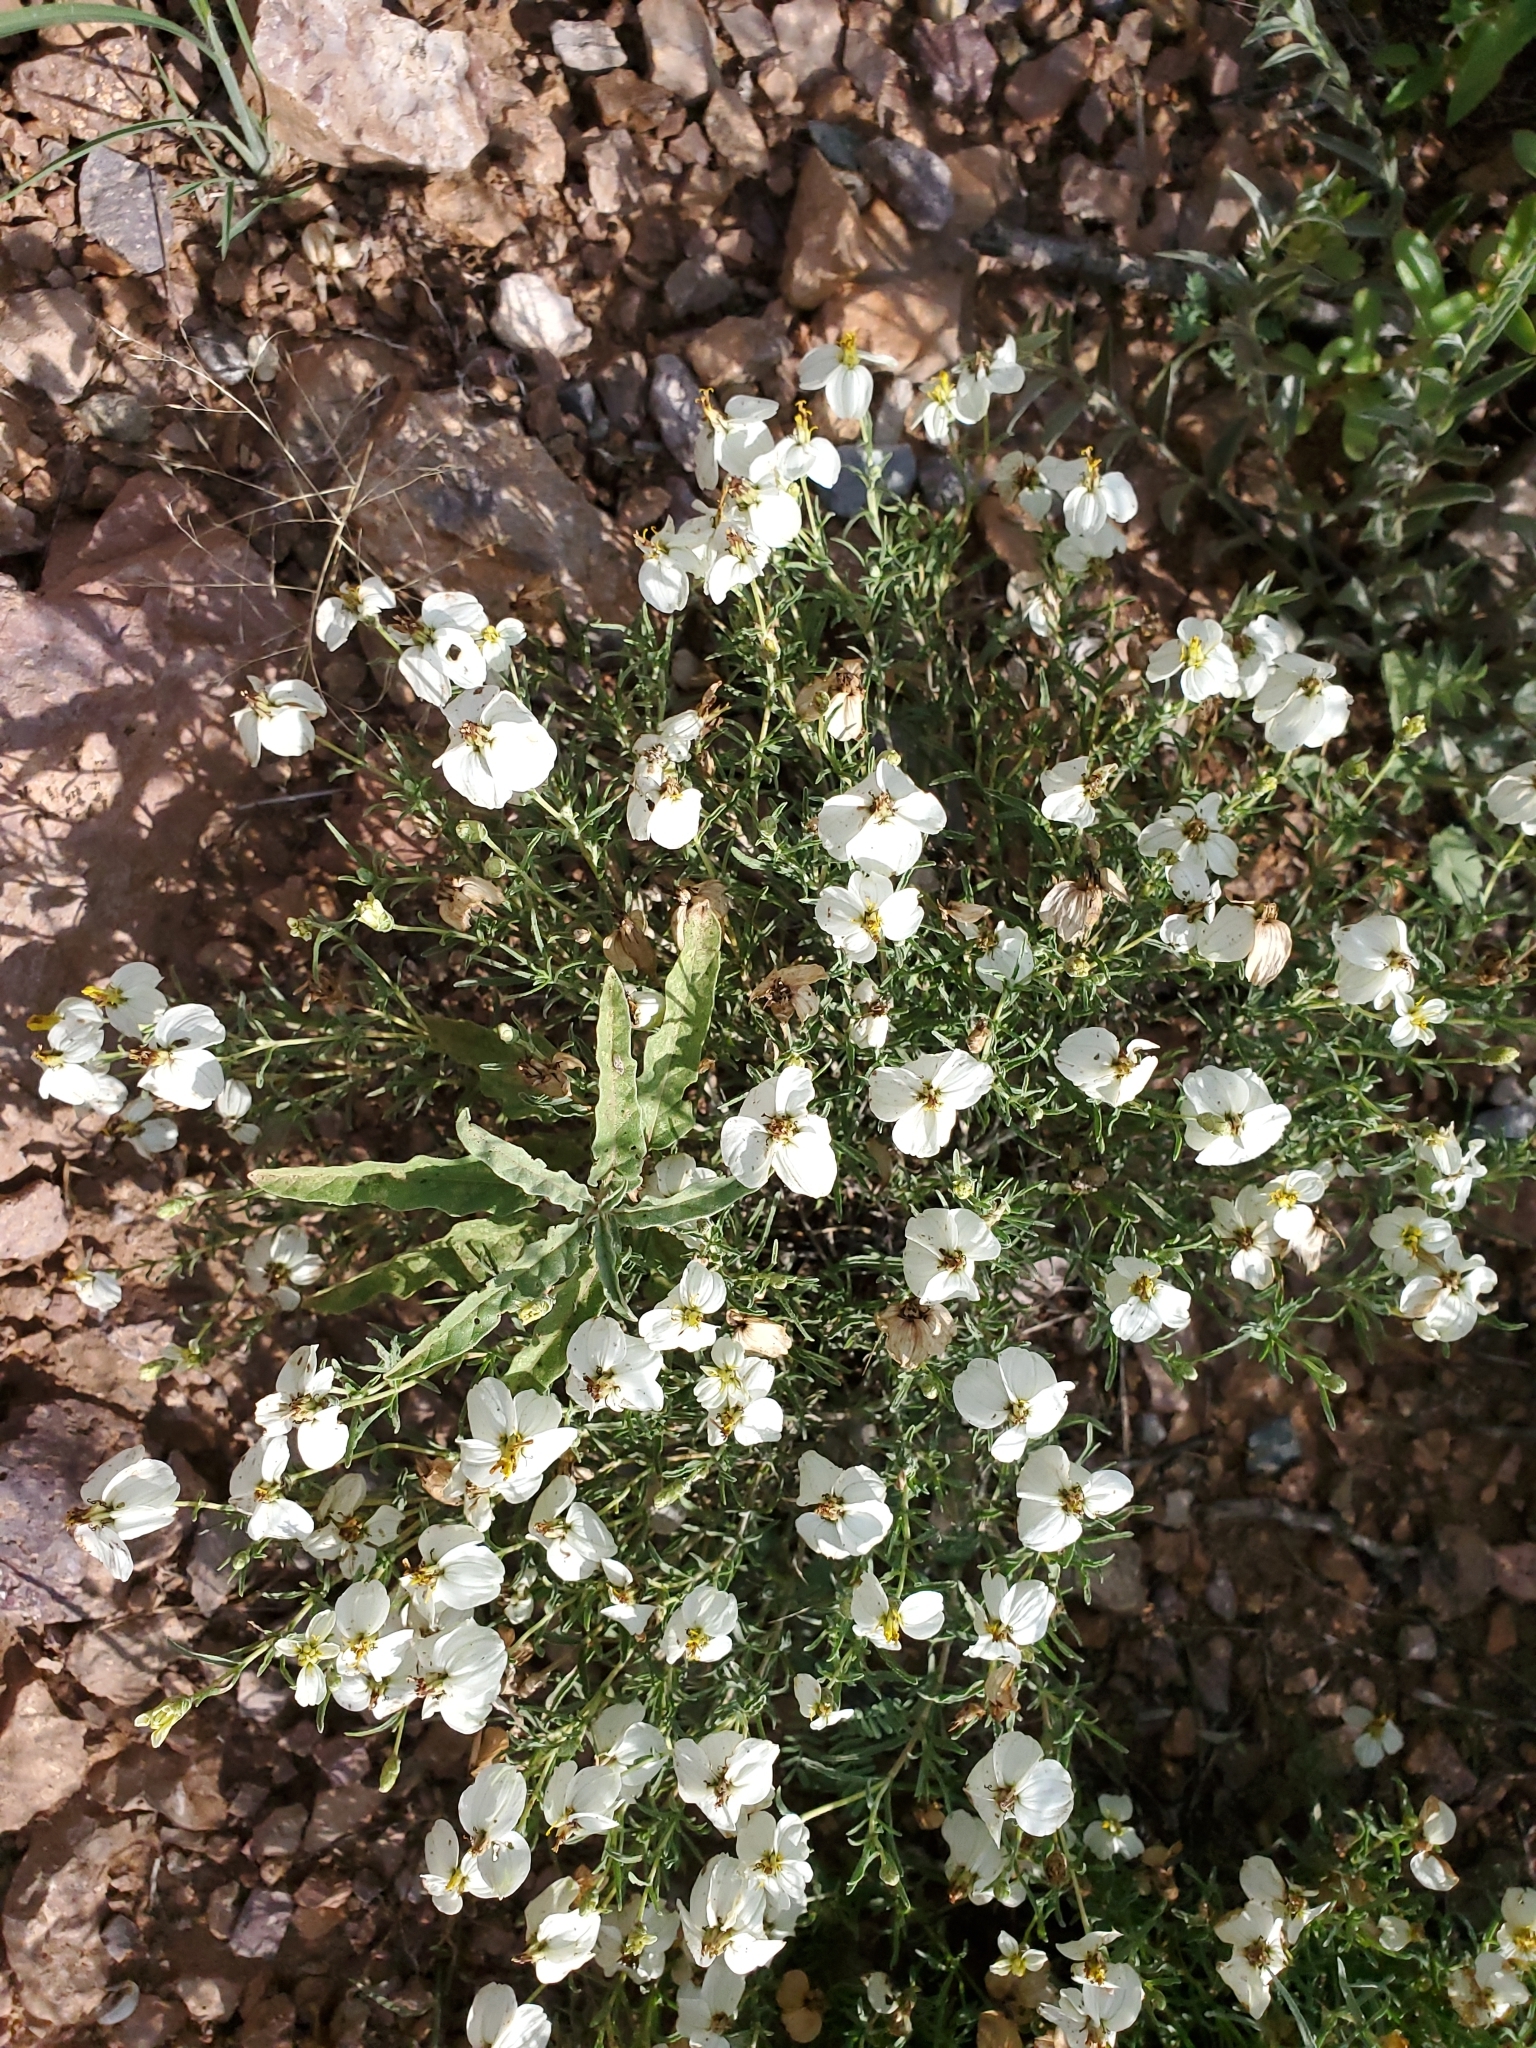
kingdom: Plantae
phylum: Tracheophyta
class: Magnoliopsida
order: Asterales
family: Asteraceae
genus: Zinnia
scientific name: Zinnia acerosa
